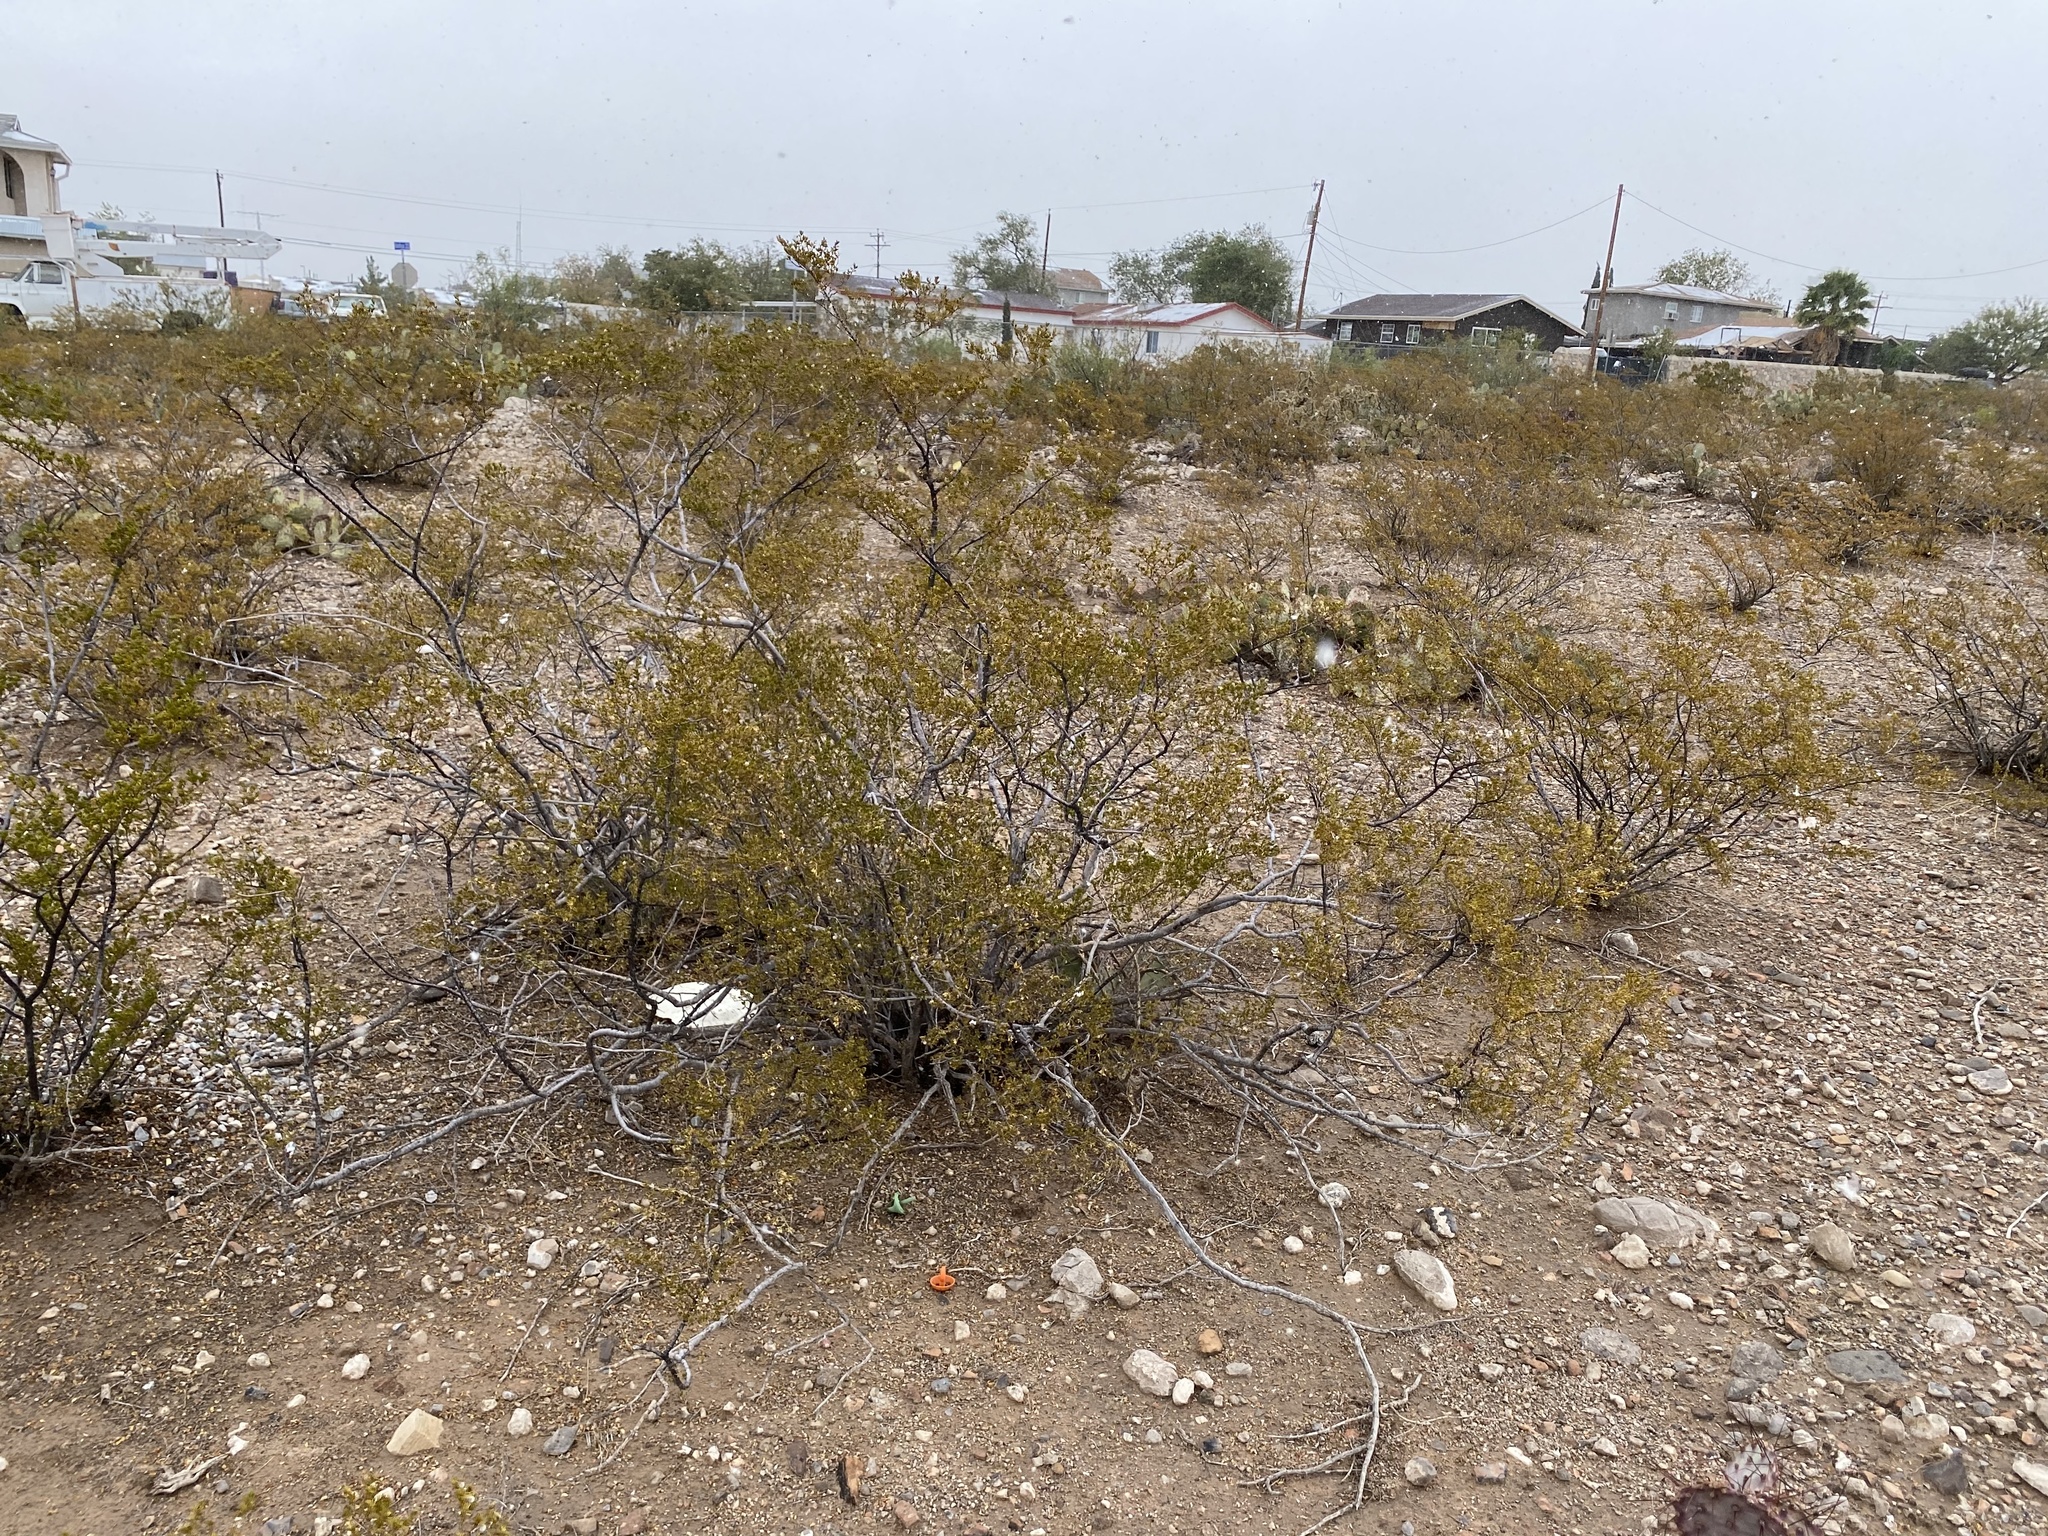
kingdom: Plantae
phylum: Tracheophyta
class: Magnoliopsida
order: Zygophyllales
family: Zygophyllaceae
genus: Larrea
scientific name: Larrea tridentata
